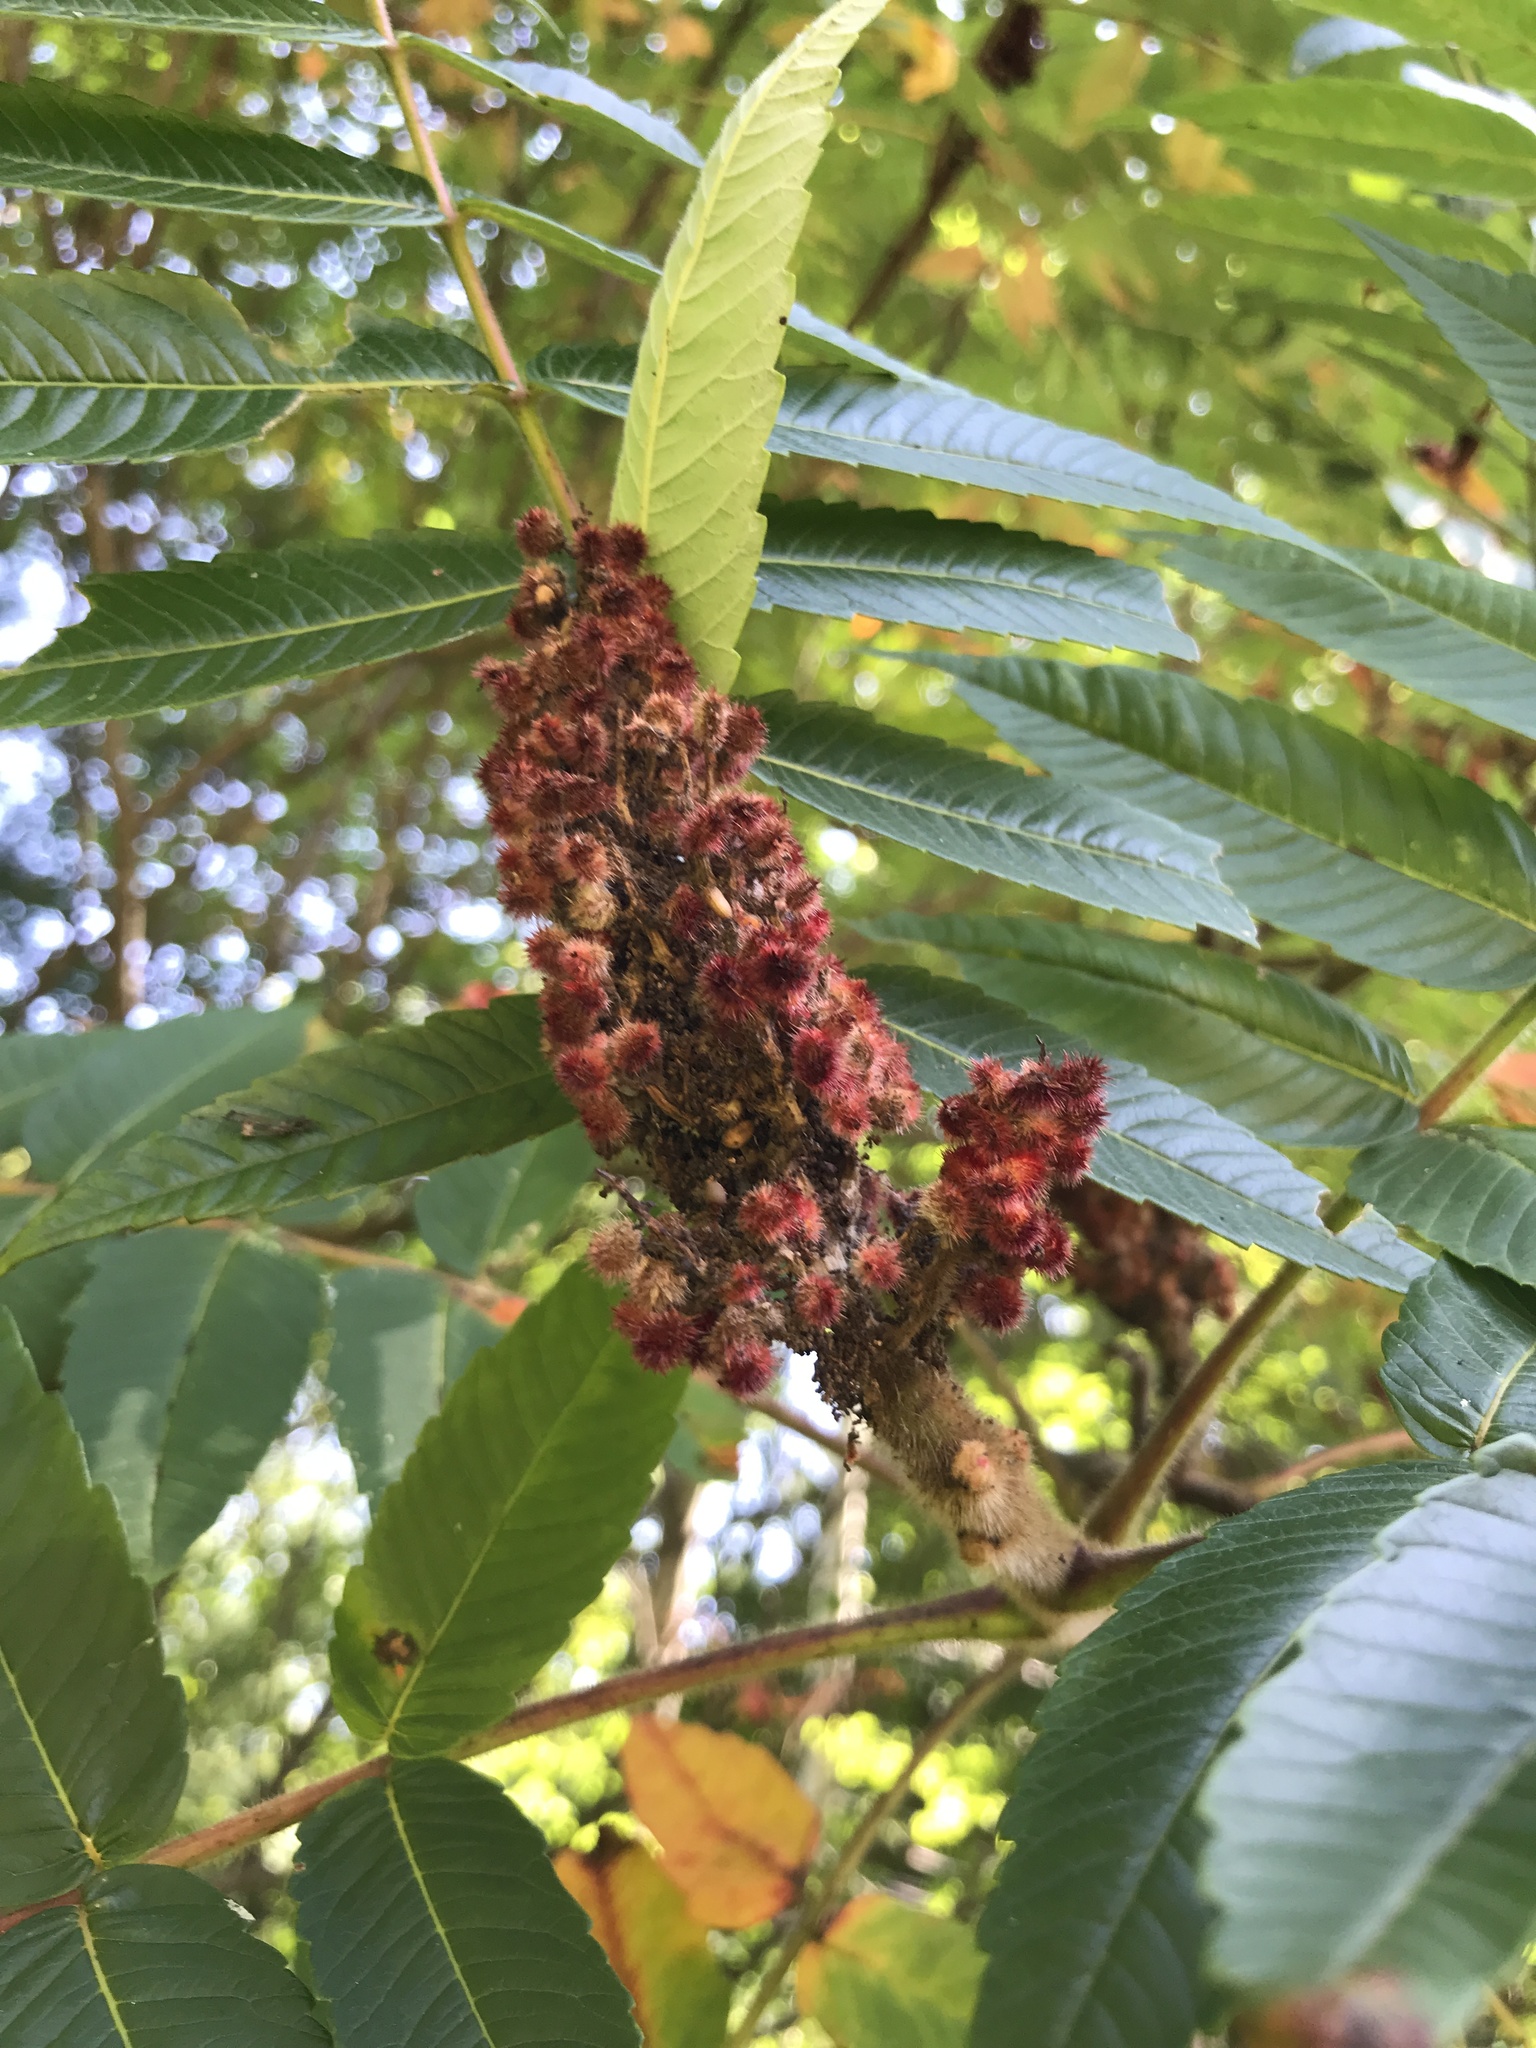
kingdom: Plantae
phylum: Tracheophyta
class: Magnoliopsida
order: Sapindales
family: Anacardiaceae
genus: Rhus
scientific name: Rhus typhina
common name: Staghorn sumac
